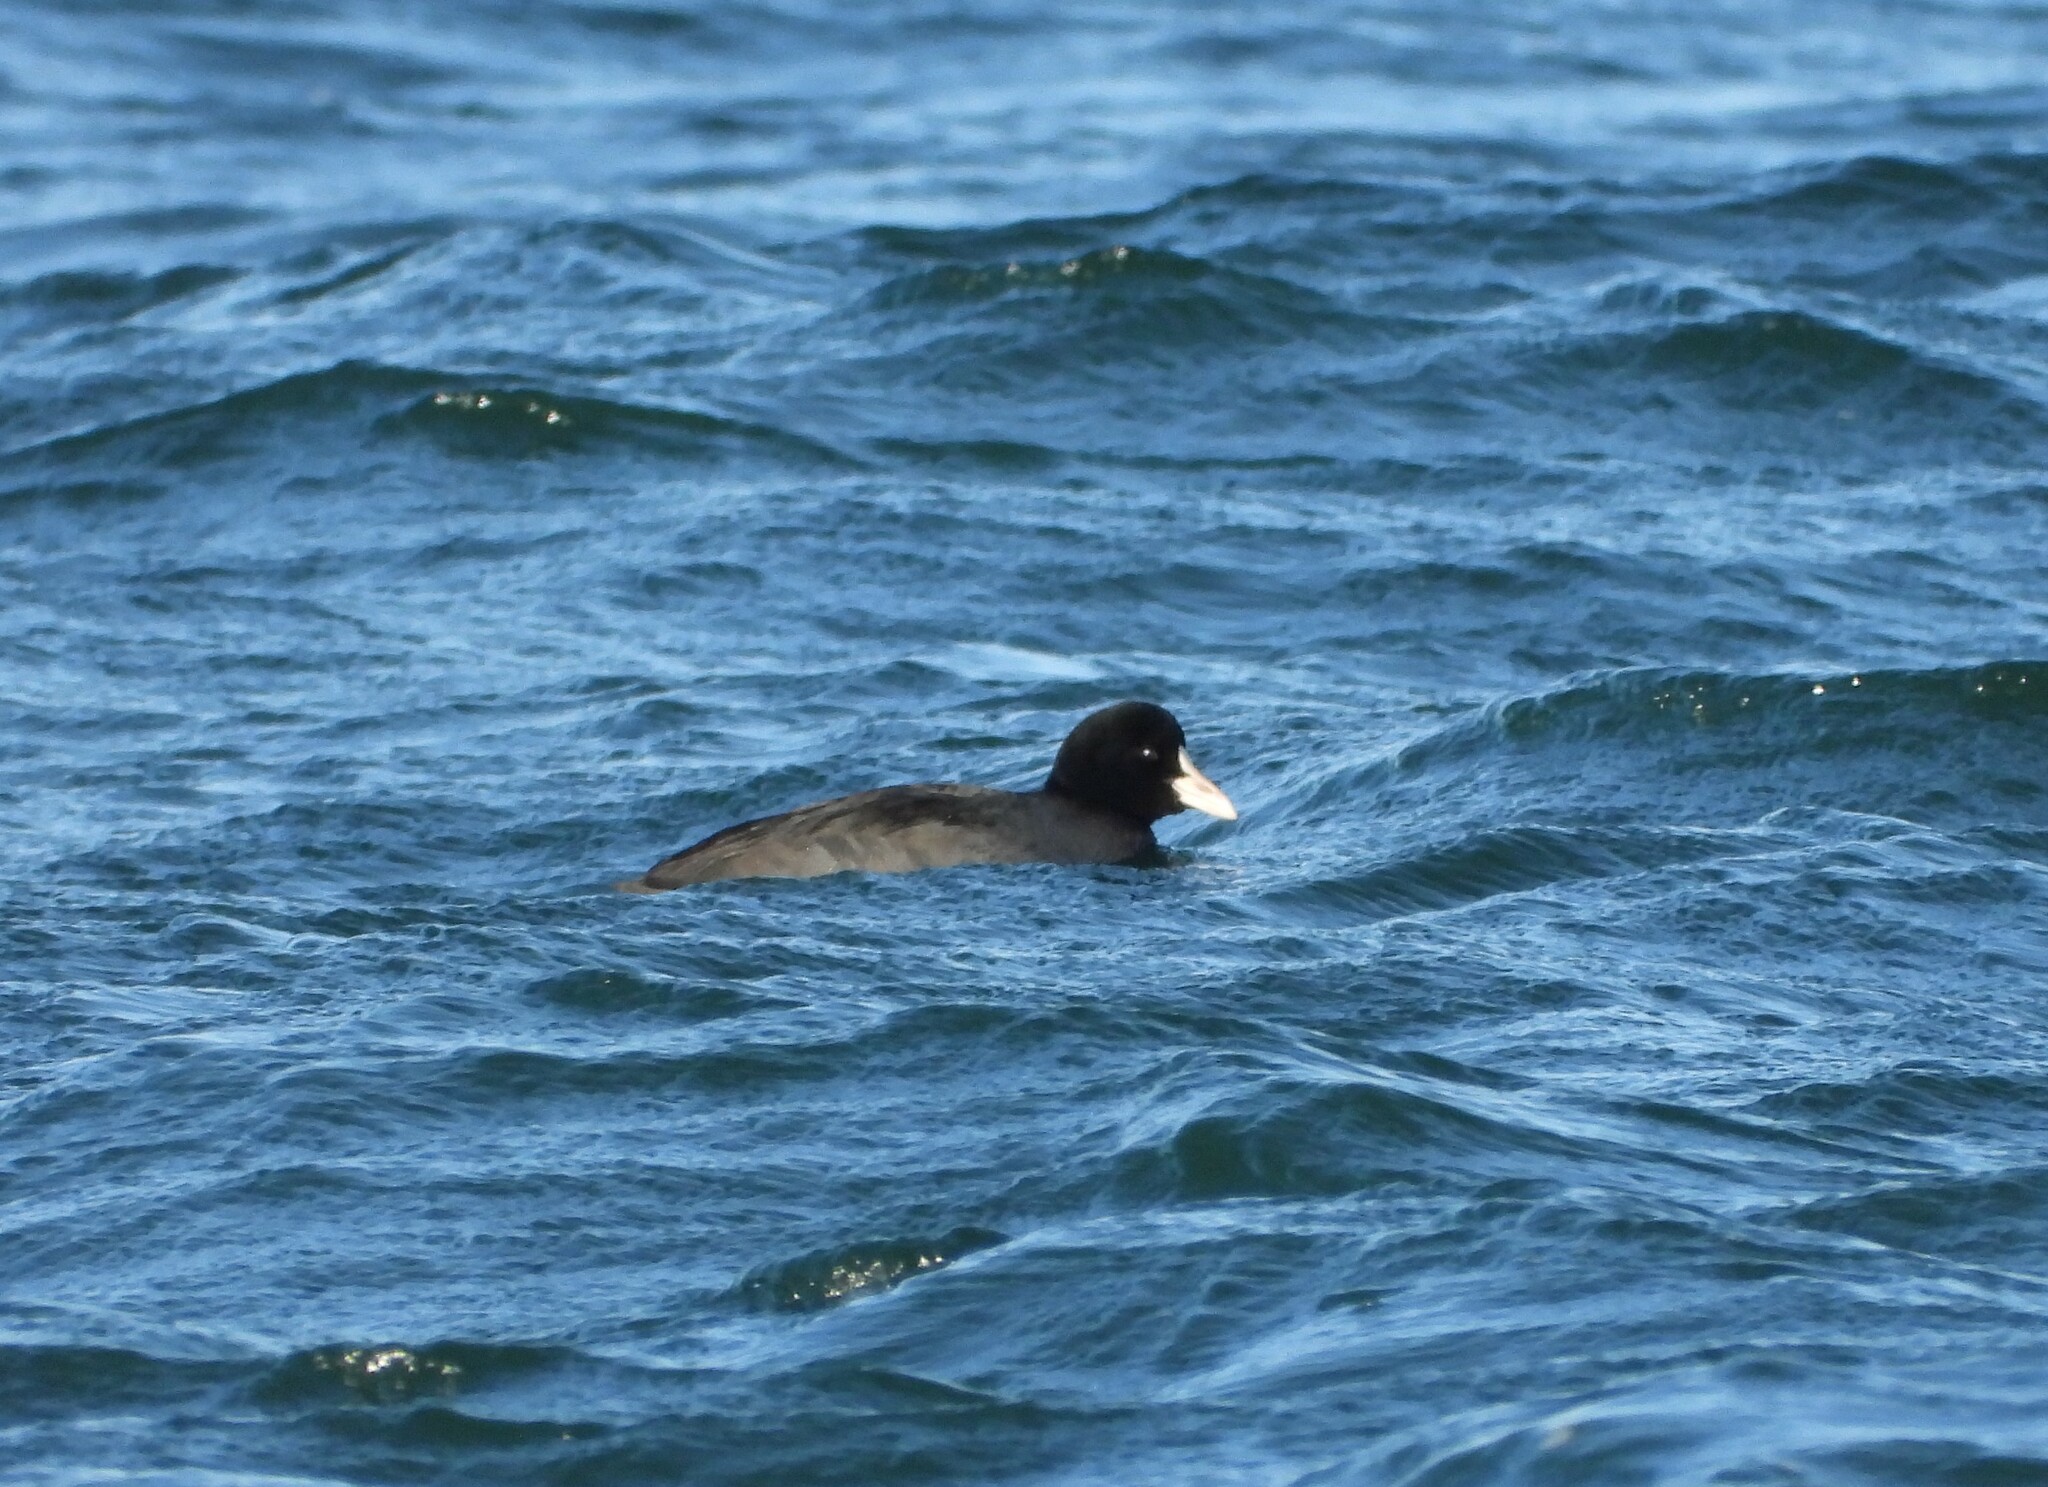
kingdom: Animalia
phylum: Chordata
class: Aves
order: Gruiformes
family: Rallidae
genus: Fulica
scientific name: Fulica atra
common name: Eurasian coot
